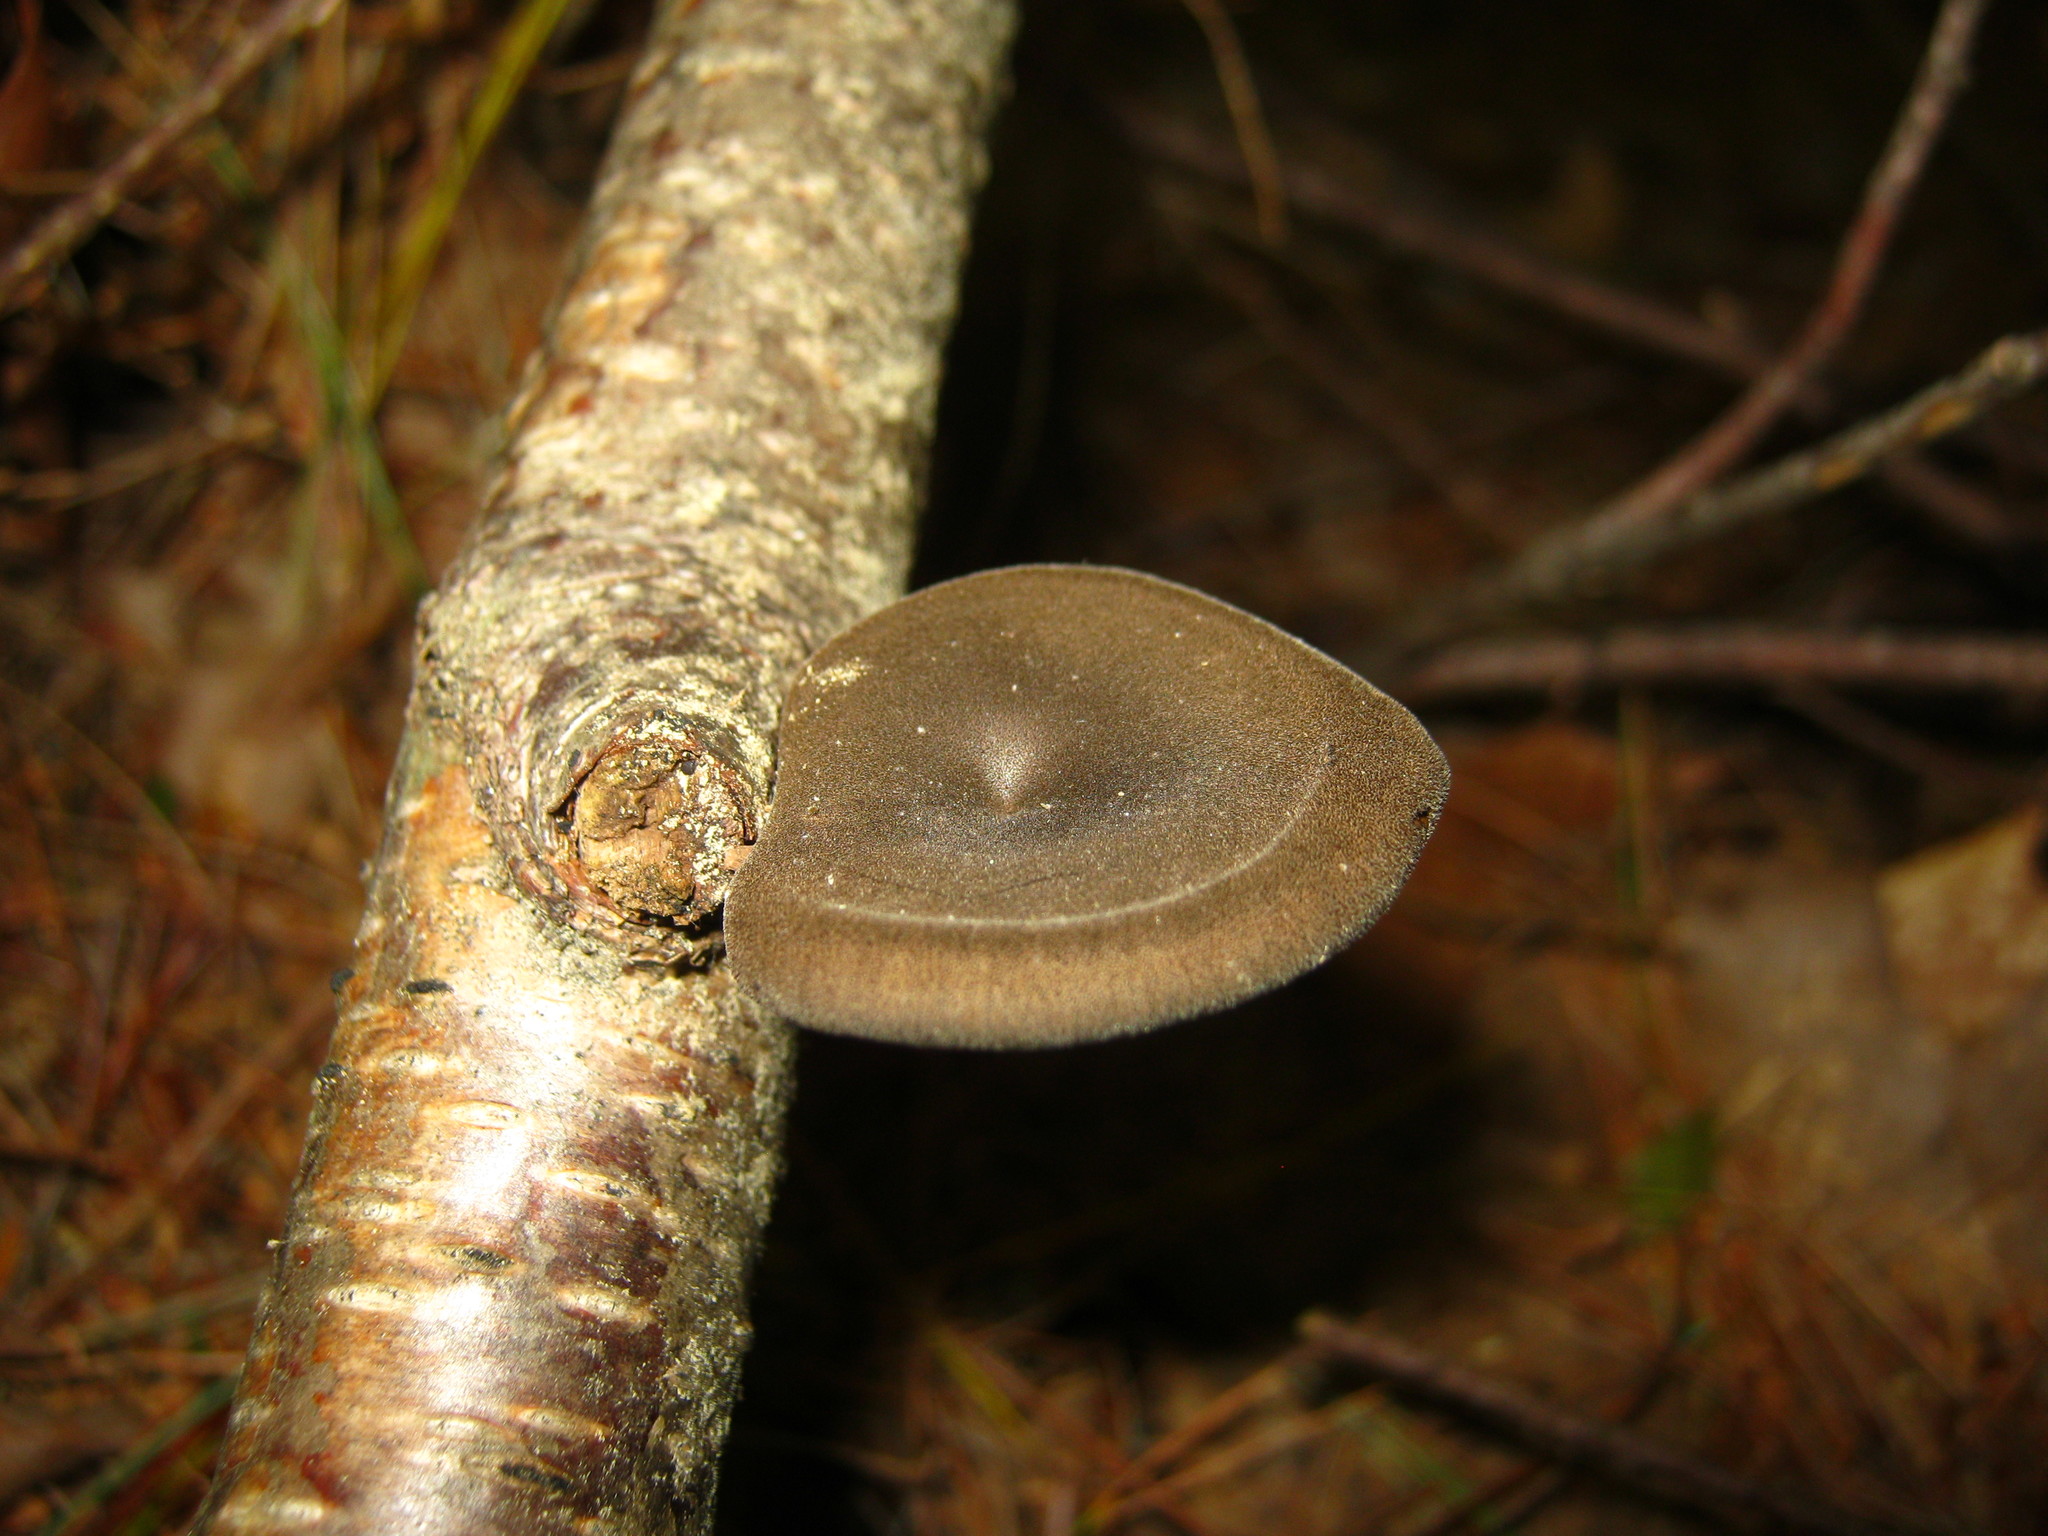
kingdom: Fungi
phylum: Basidiomycota
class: Agaricomycetes
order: Polyporales
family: Polyporaceae
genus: Lentinus
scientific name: Lentinus brumalis
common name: Winter polypore
